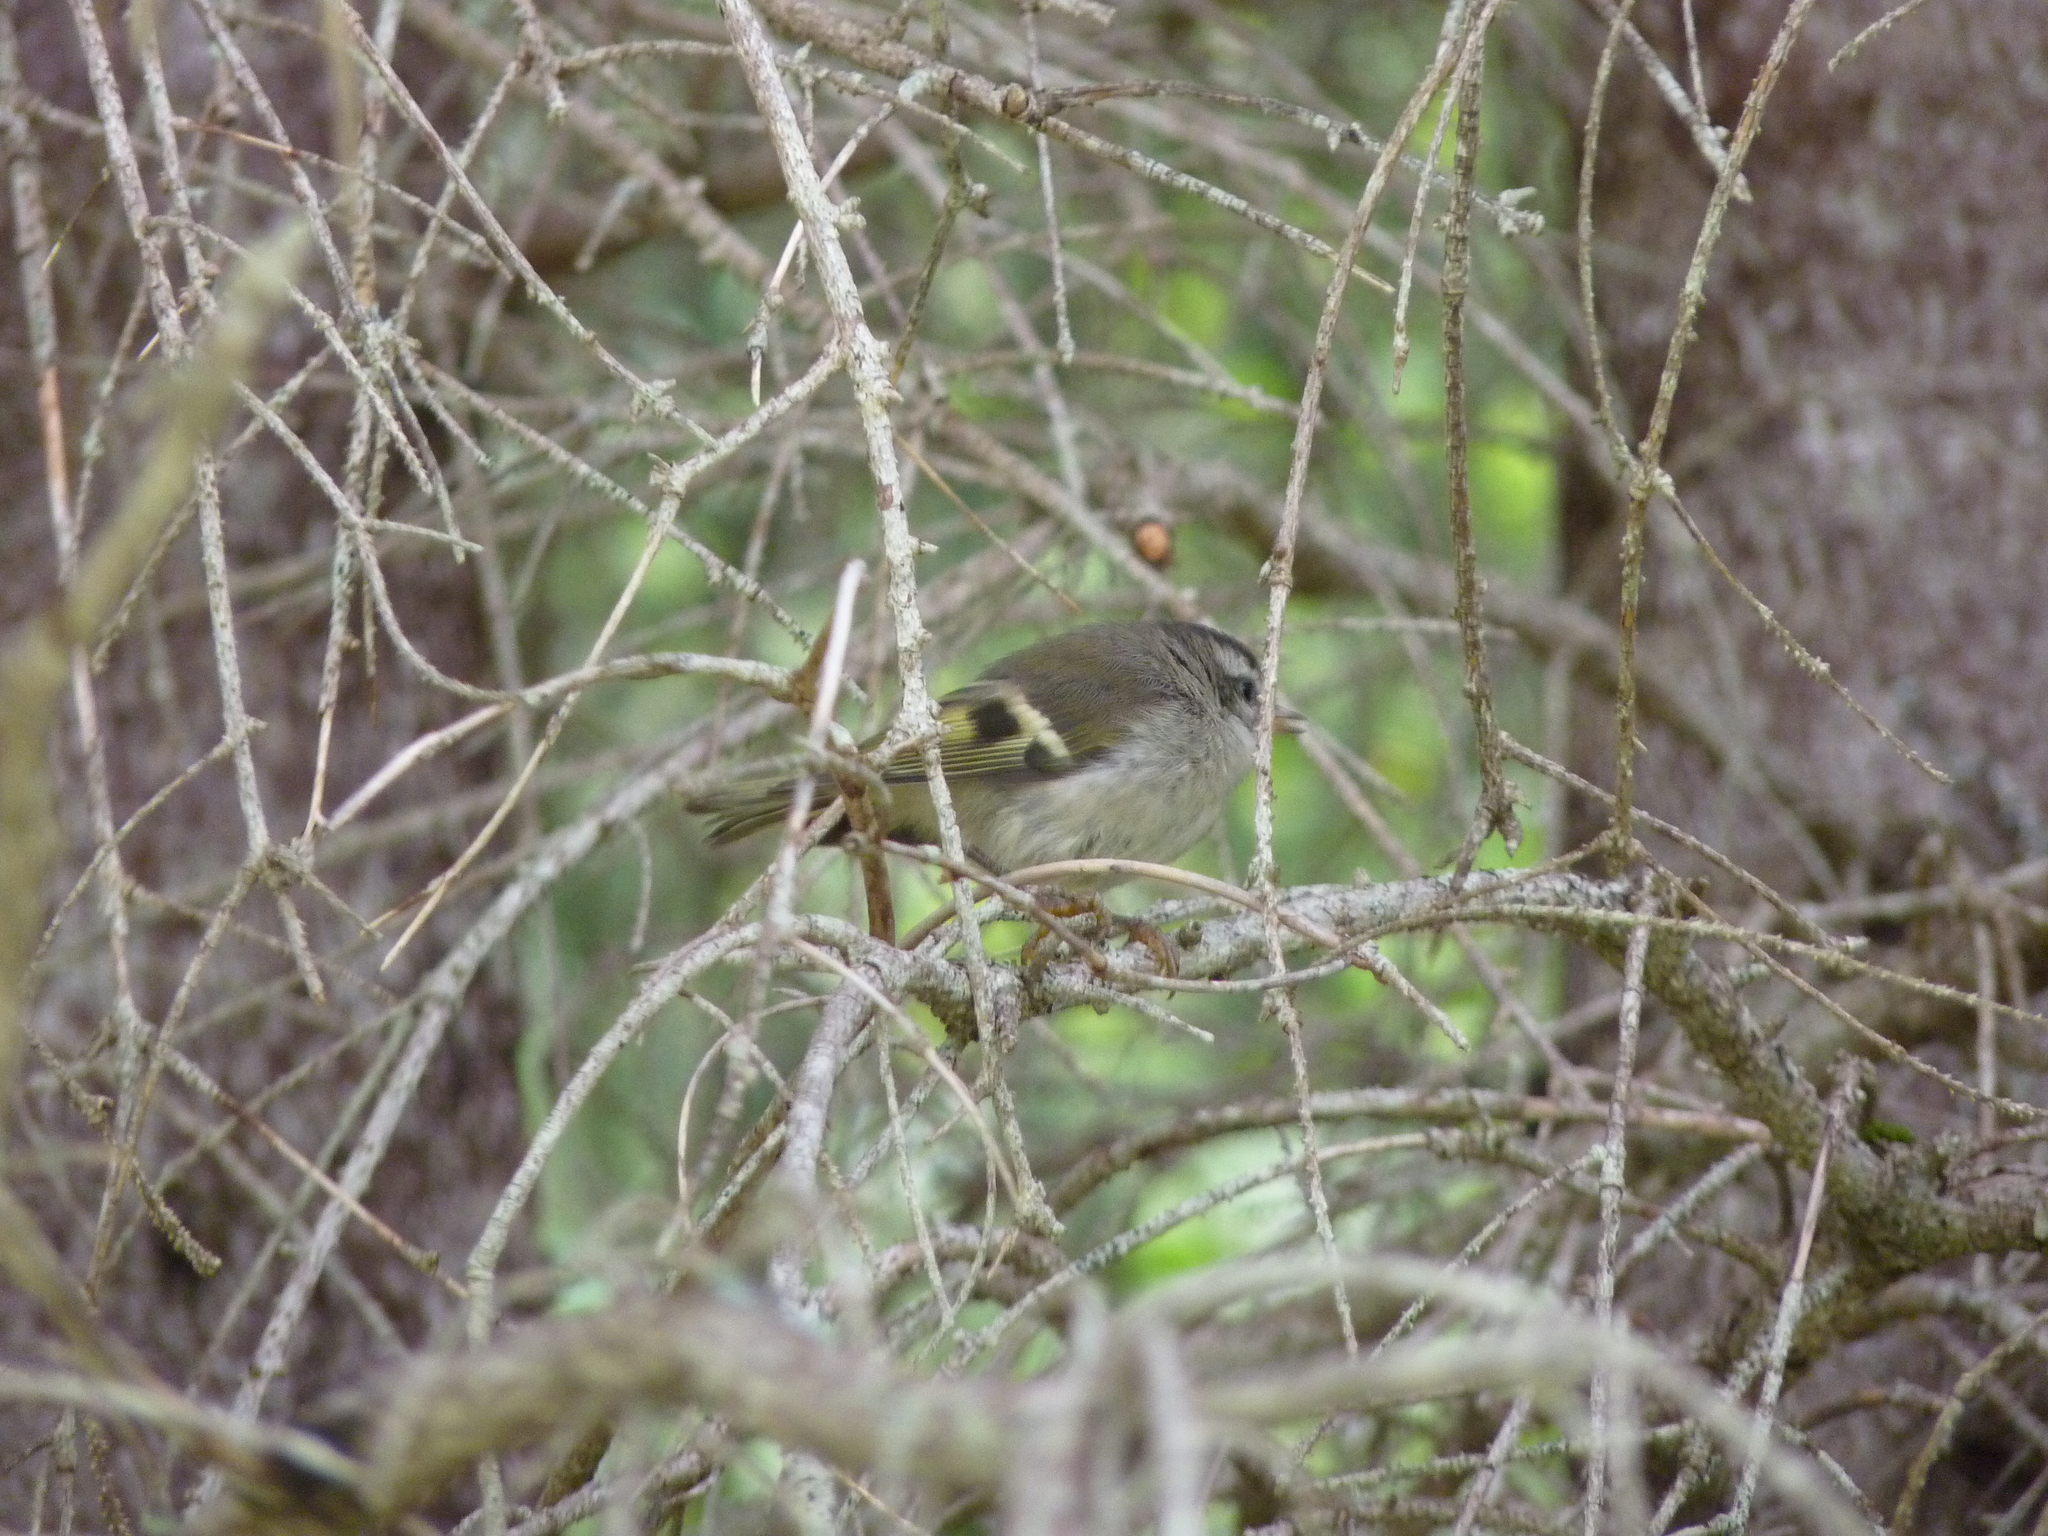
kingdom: Animalia
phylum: Chordata
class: Aves
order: Passeriformes
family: Regulidae
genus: Regulus
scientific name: Regulus satrapa
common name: Golden-crowned kinglet
